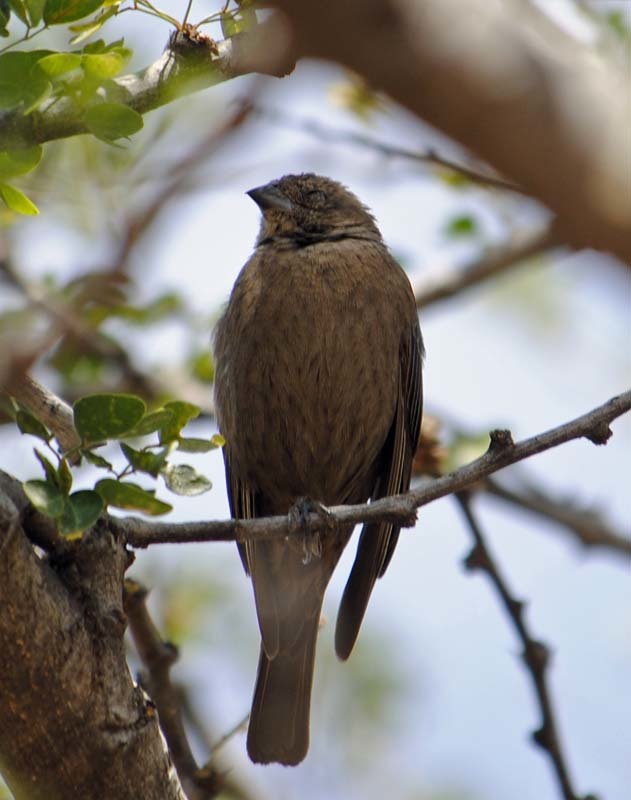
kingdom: Animalia
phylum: Chordata
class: Aves
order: Passeriformes
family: Icteridae
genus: Molothrus
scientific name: Molothrus ater
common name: Brown-headed cowbird
